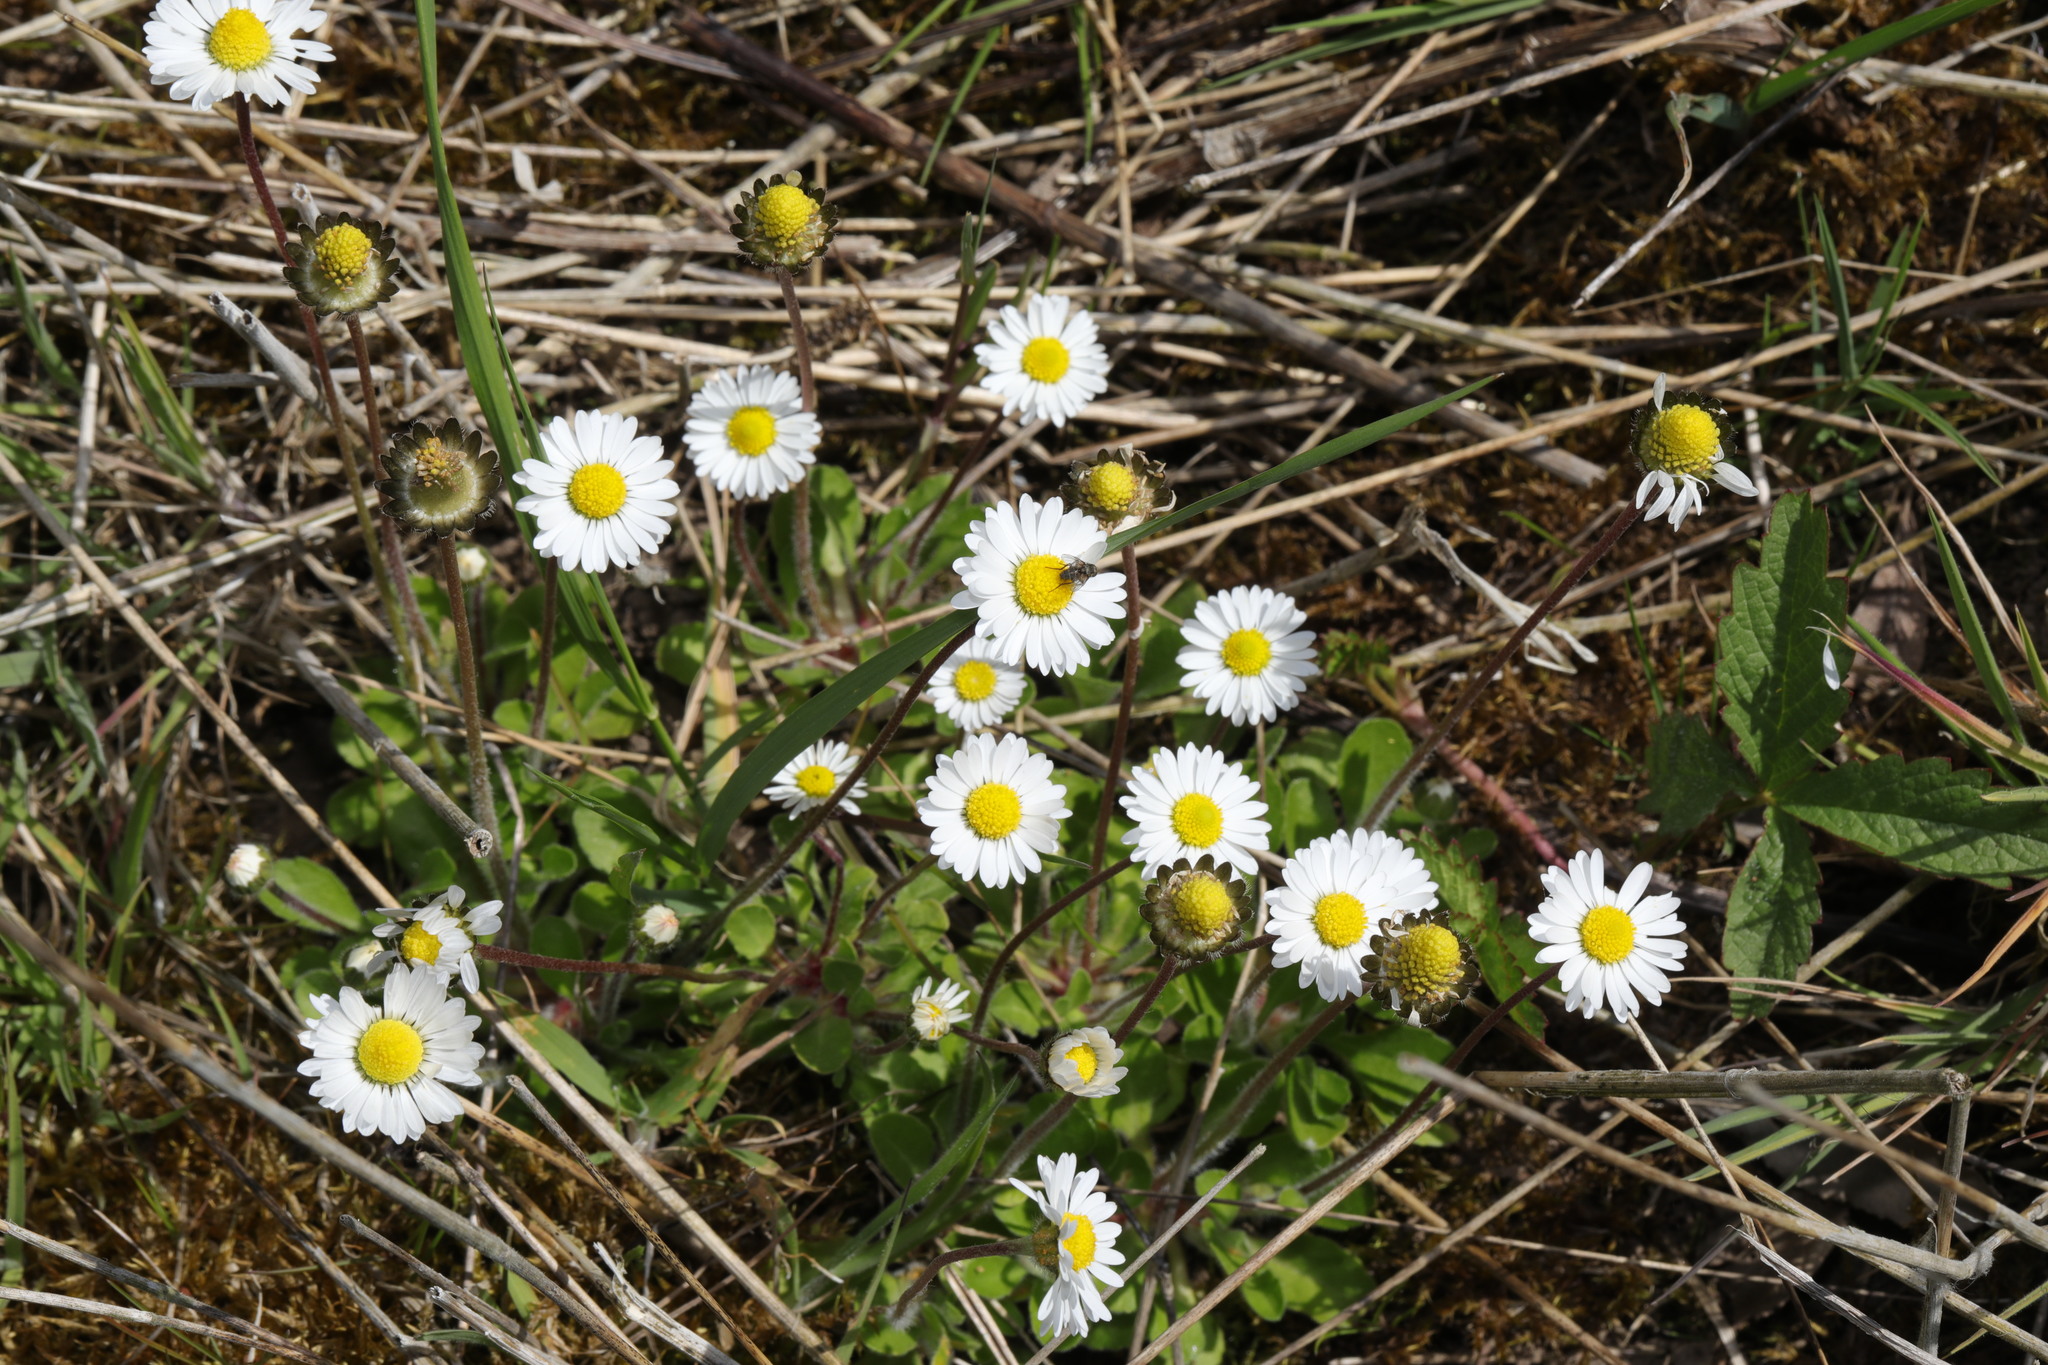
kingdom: Plantae
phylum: Tracheophyta
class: Magnoliopsida
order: Asterales
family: Asteraceae
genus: Bellis
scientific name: Bellis perennis
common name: Lawndaisy
